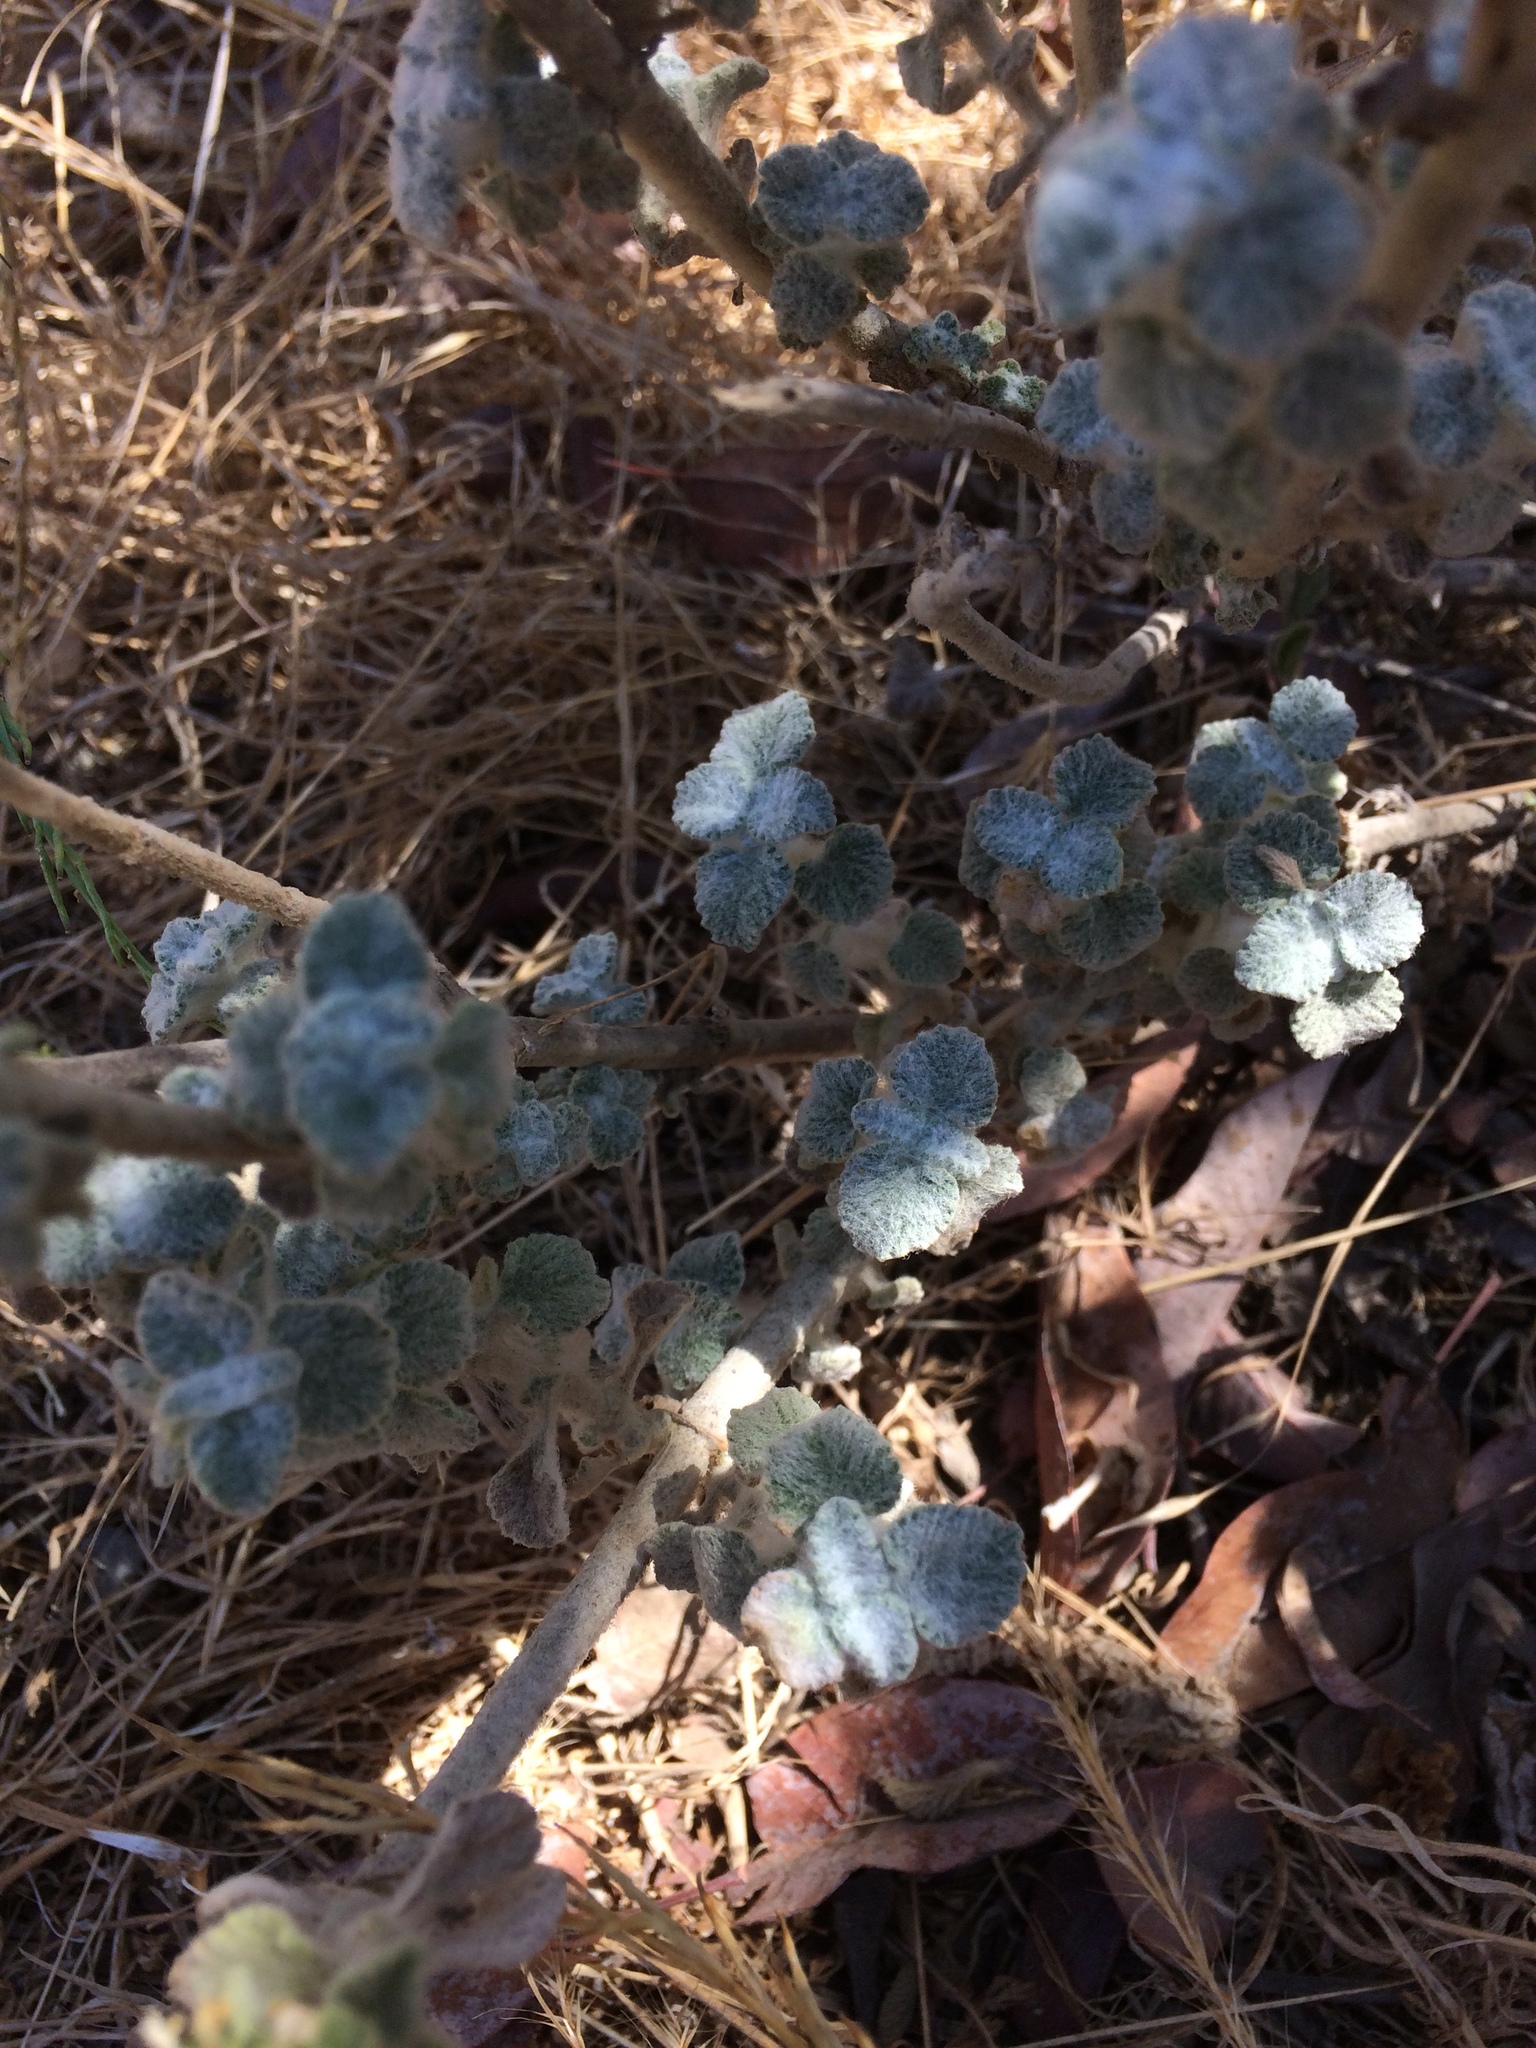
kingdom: Plantae
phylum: Tracheophyta
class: Magnoliopsida
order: Lamiales
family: Lamiaceae
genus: Marrubium
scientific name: Marrubium vulgare
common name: Horehound
